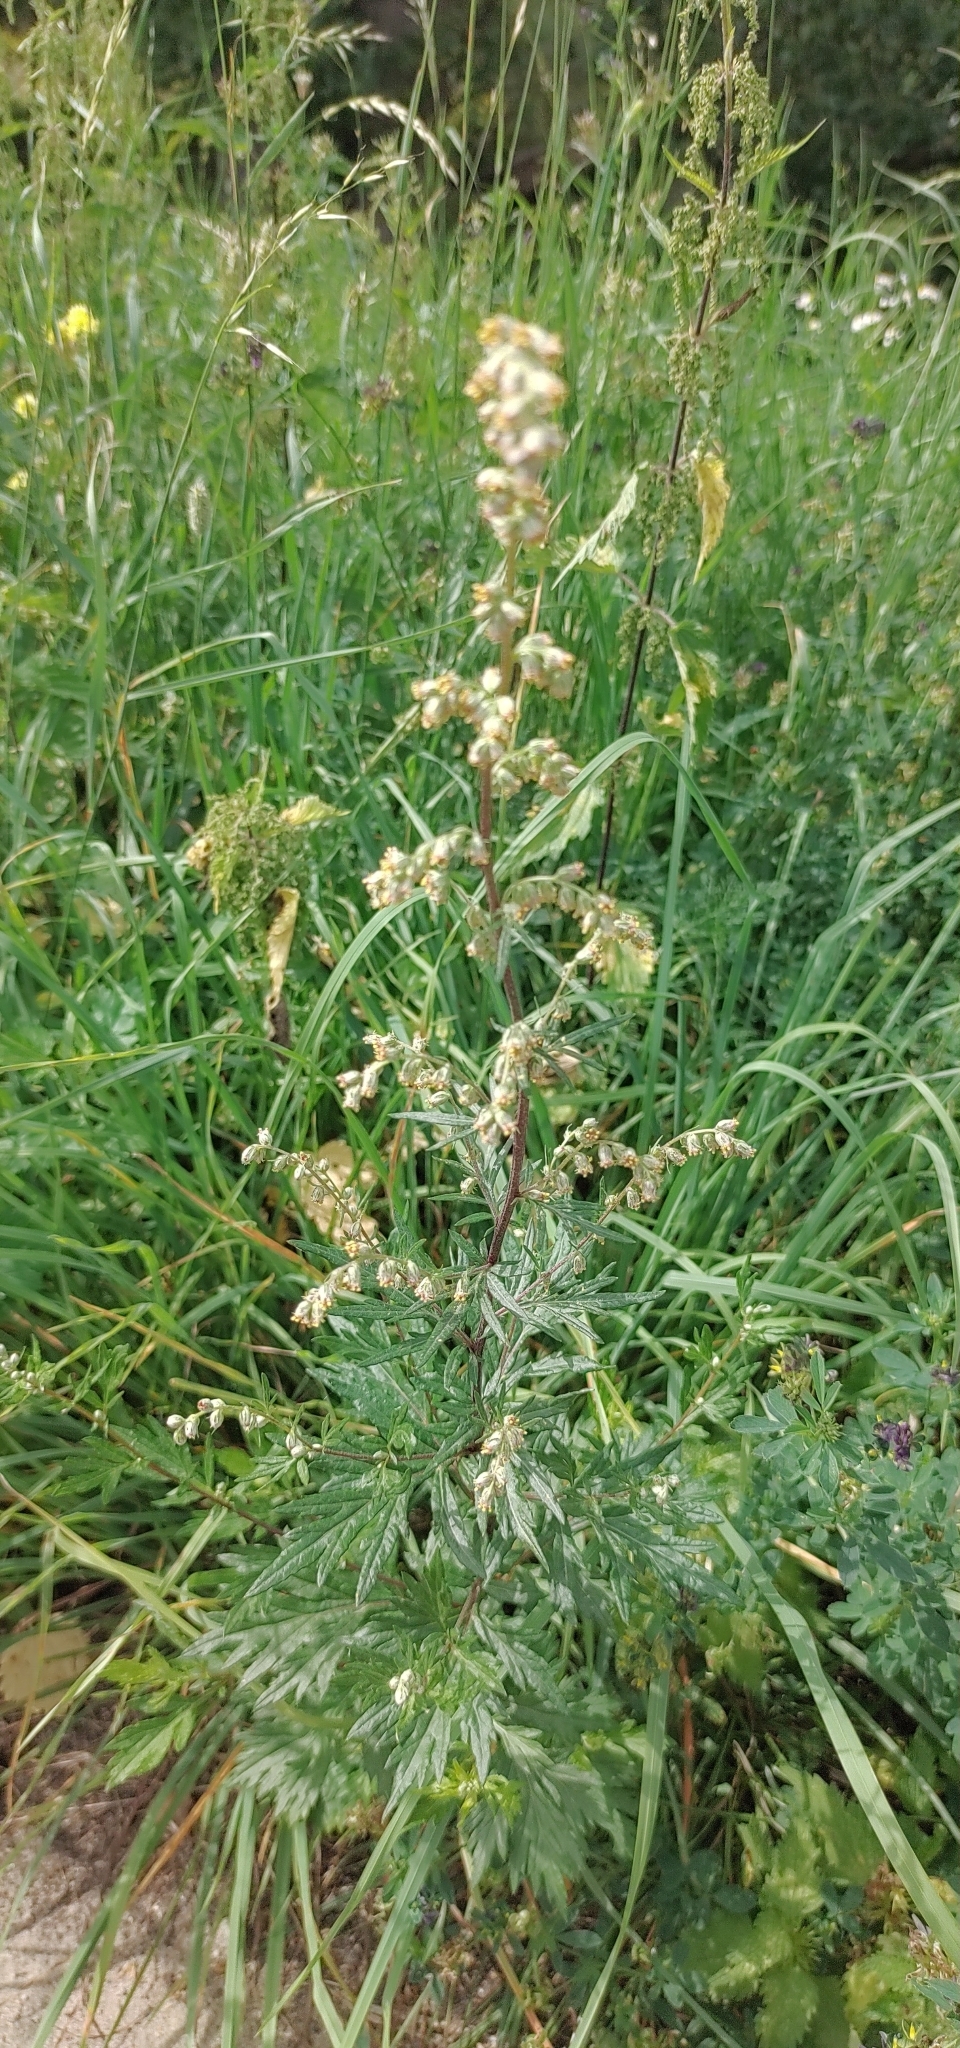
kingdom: Plantae
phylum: Tracheophyta
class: Magnoliopsida
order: Asterales
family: Asteraceae
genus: Artemisia
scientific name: Artemisia vulgaris
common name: Mugwort
